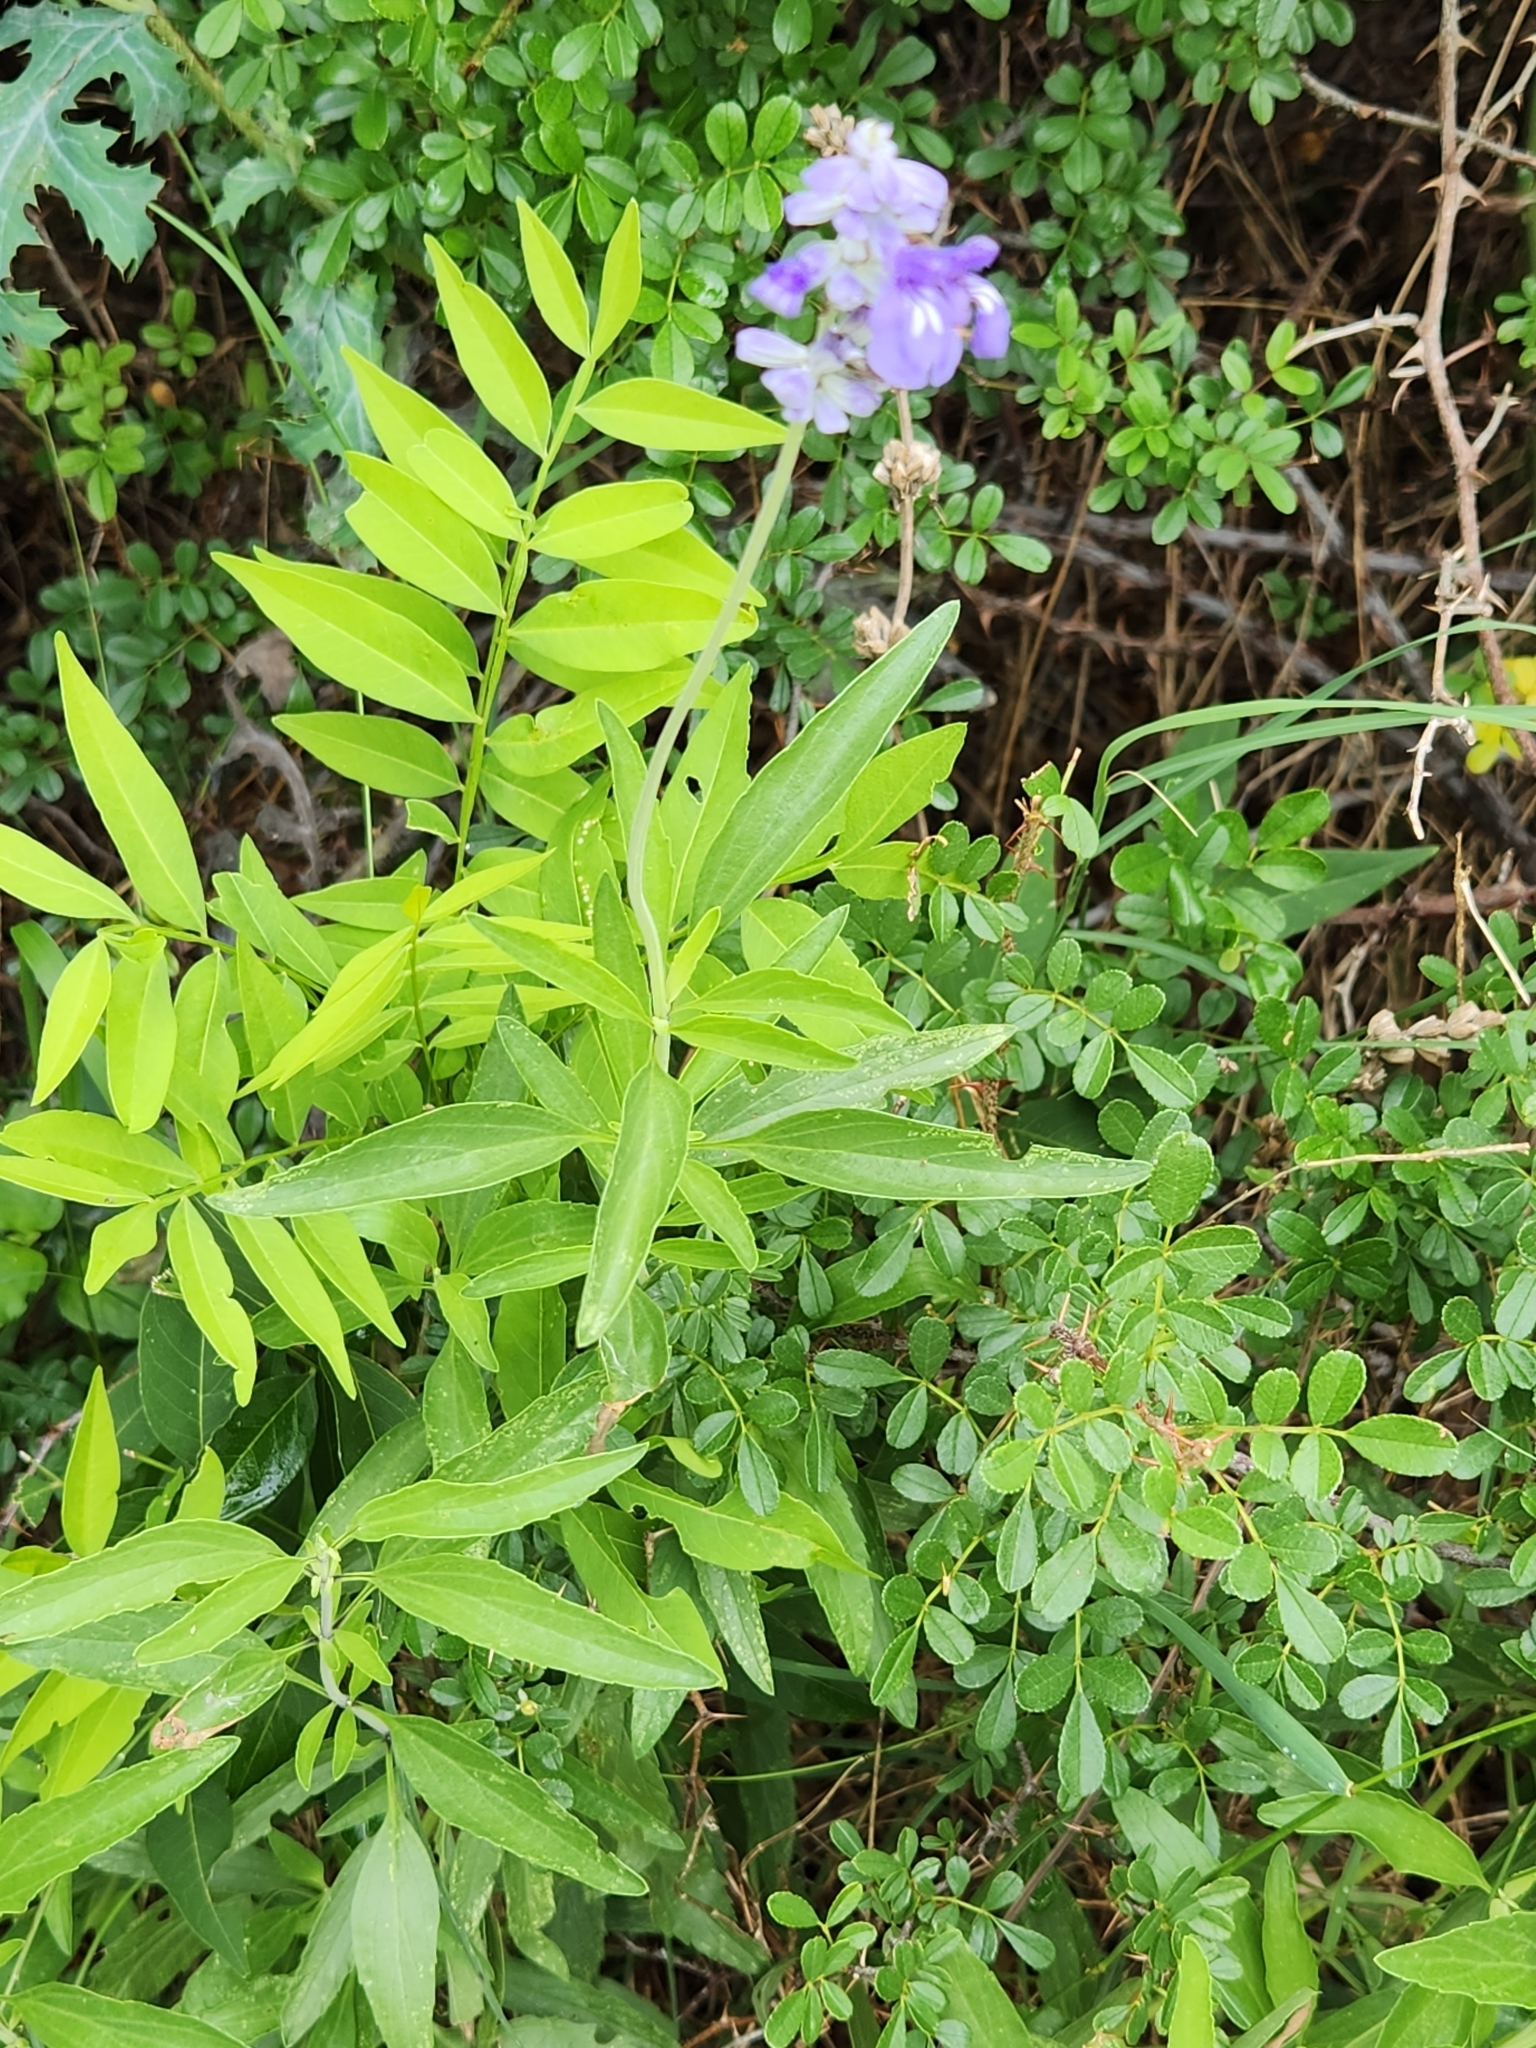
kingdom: Plantae
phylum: Tracheophyta
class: Magnoliopsida
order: Lamiales
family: Lamiaceae
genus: Salvia
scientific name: Salvia farinacea
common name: Mealy sage
